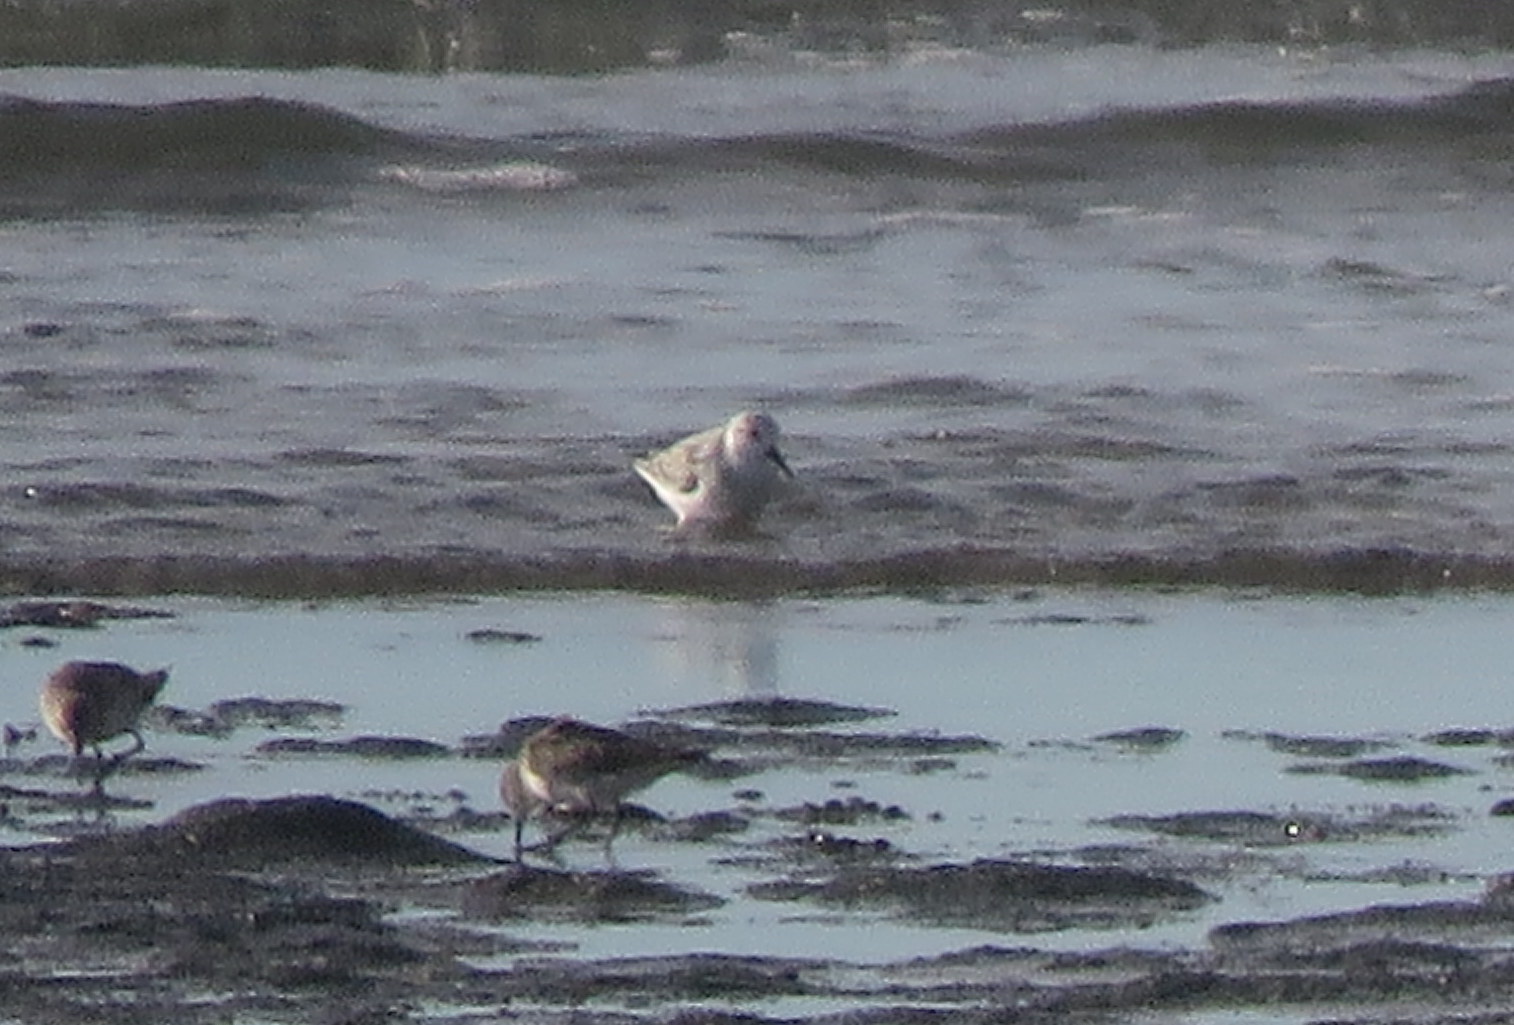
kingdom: Animalia
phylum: Chordata
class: Aves
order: Charadriiformes
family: Scolopacidae
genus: Calidris
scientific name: Calidris alba
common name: Sanderling
